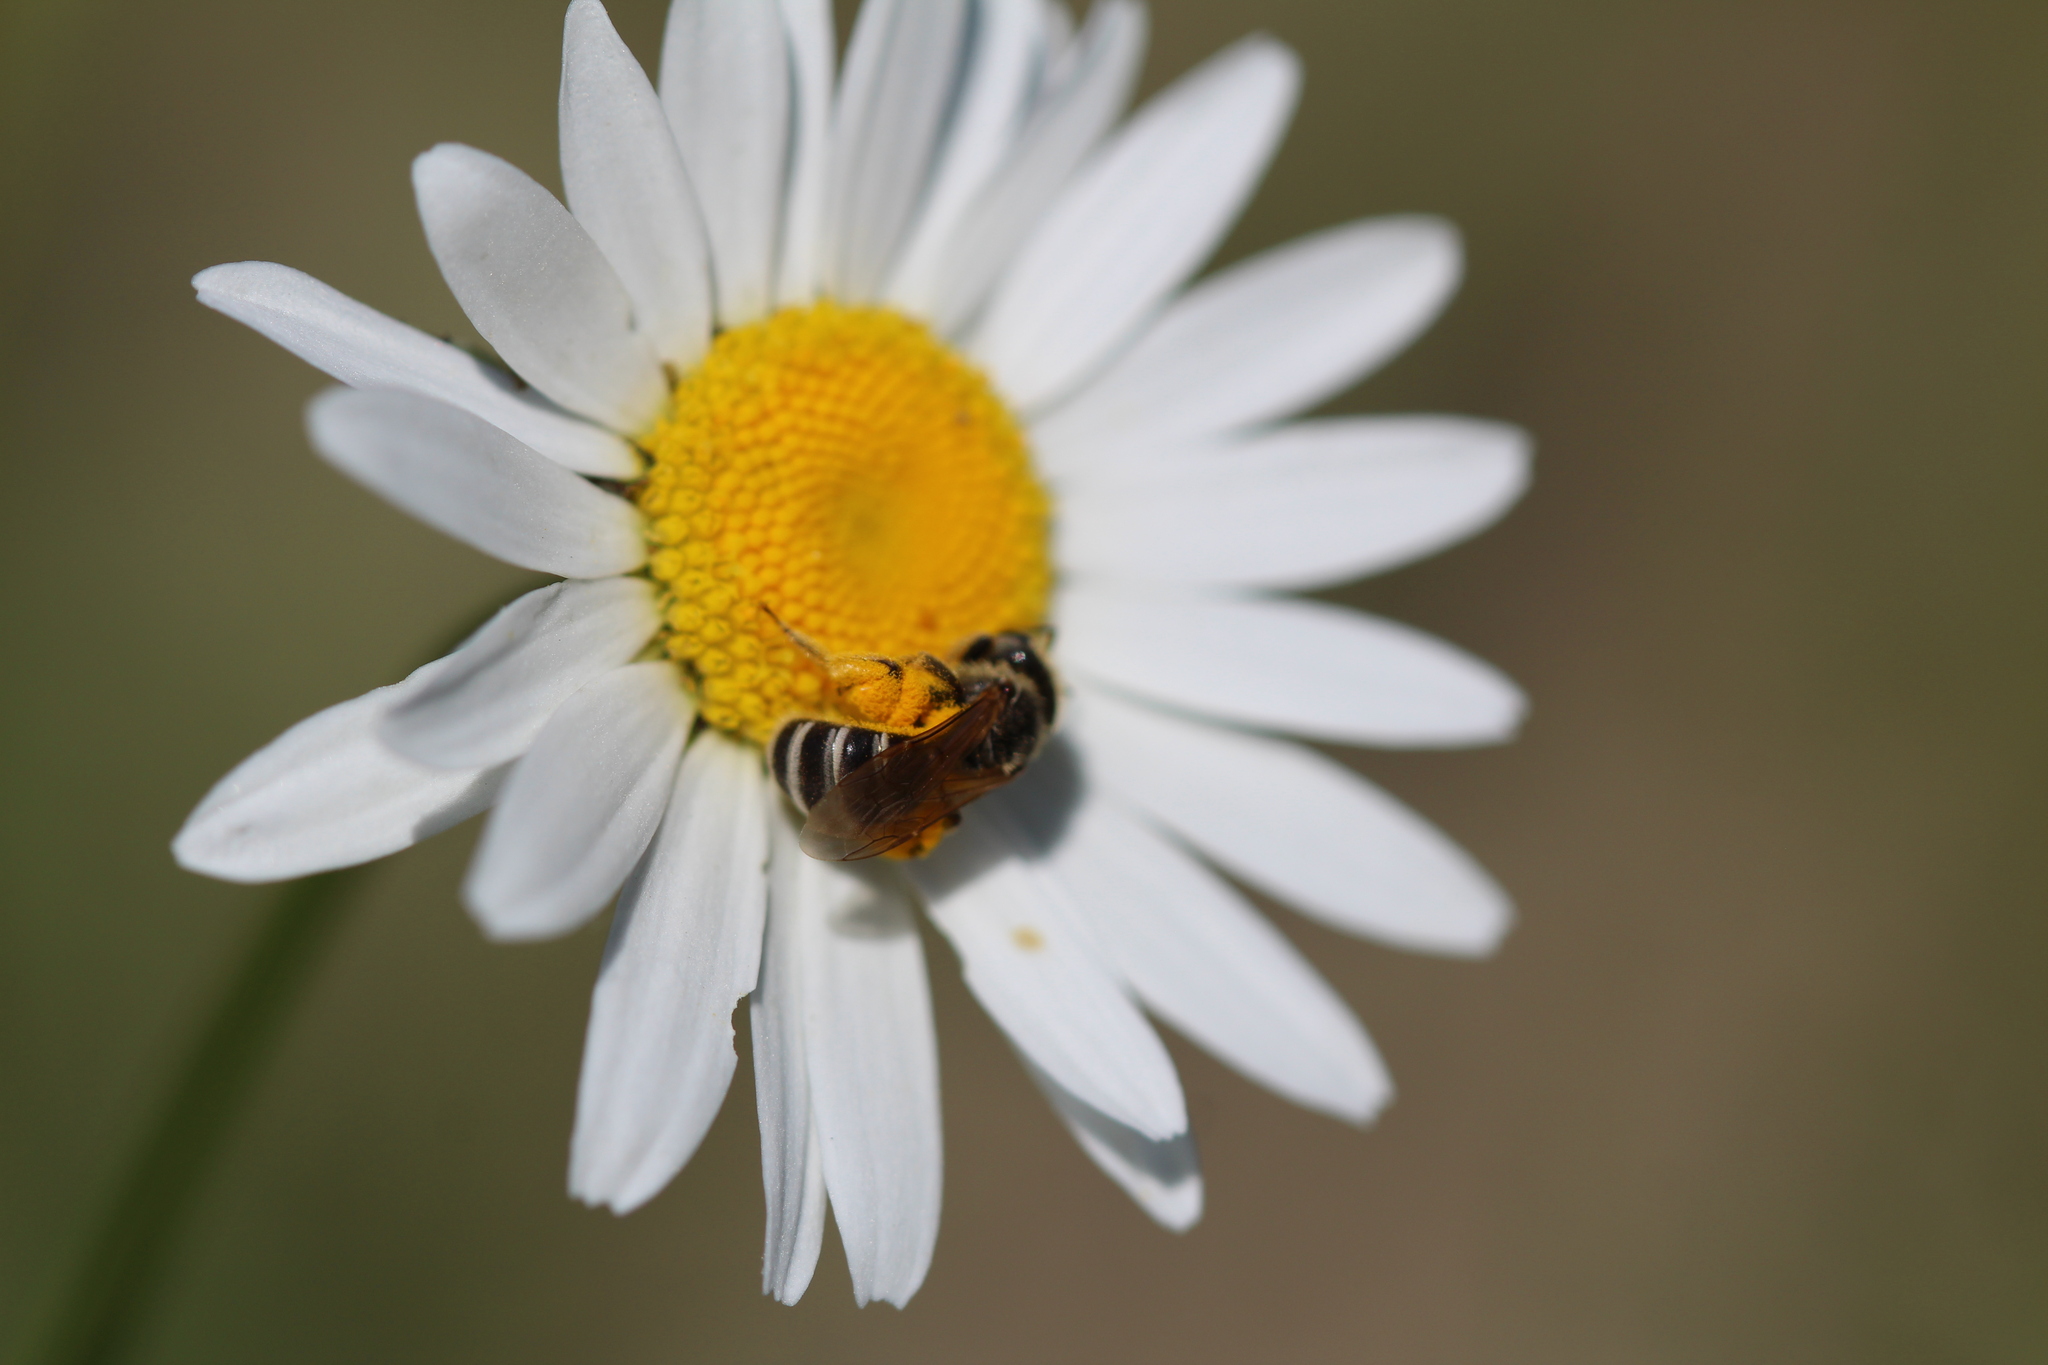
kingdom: Animalia
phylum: Arthropoda
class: Insecta
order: Hymenoptera
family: Halictidae
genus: Halictus
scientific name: Halictus ligatus
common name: Ligated furrow bee
